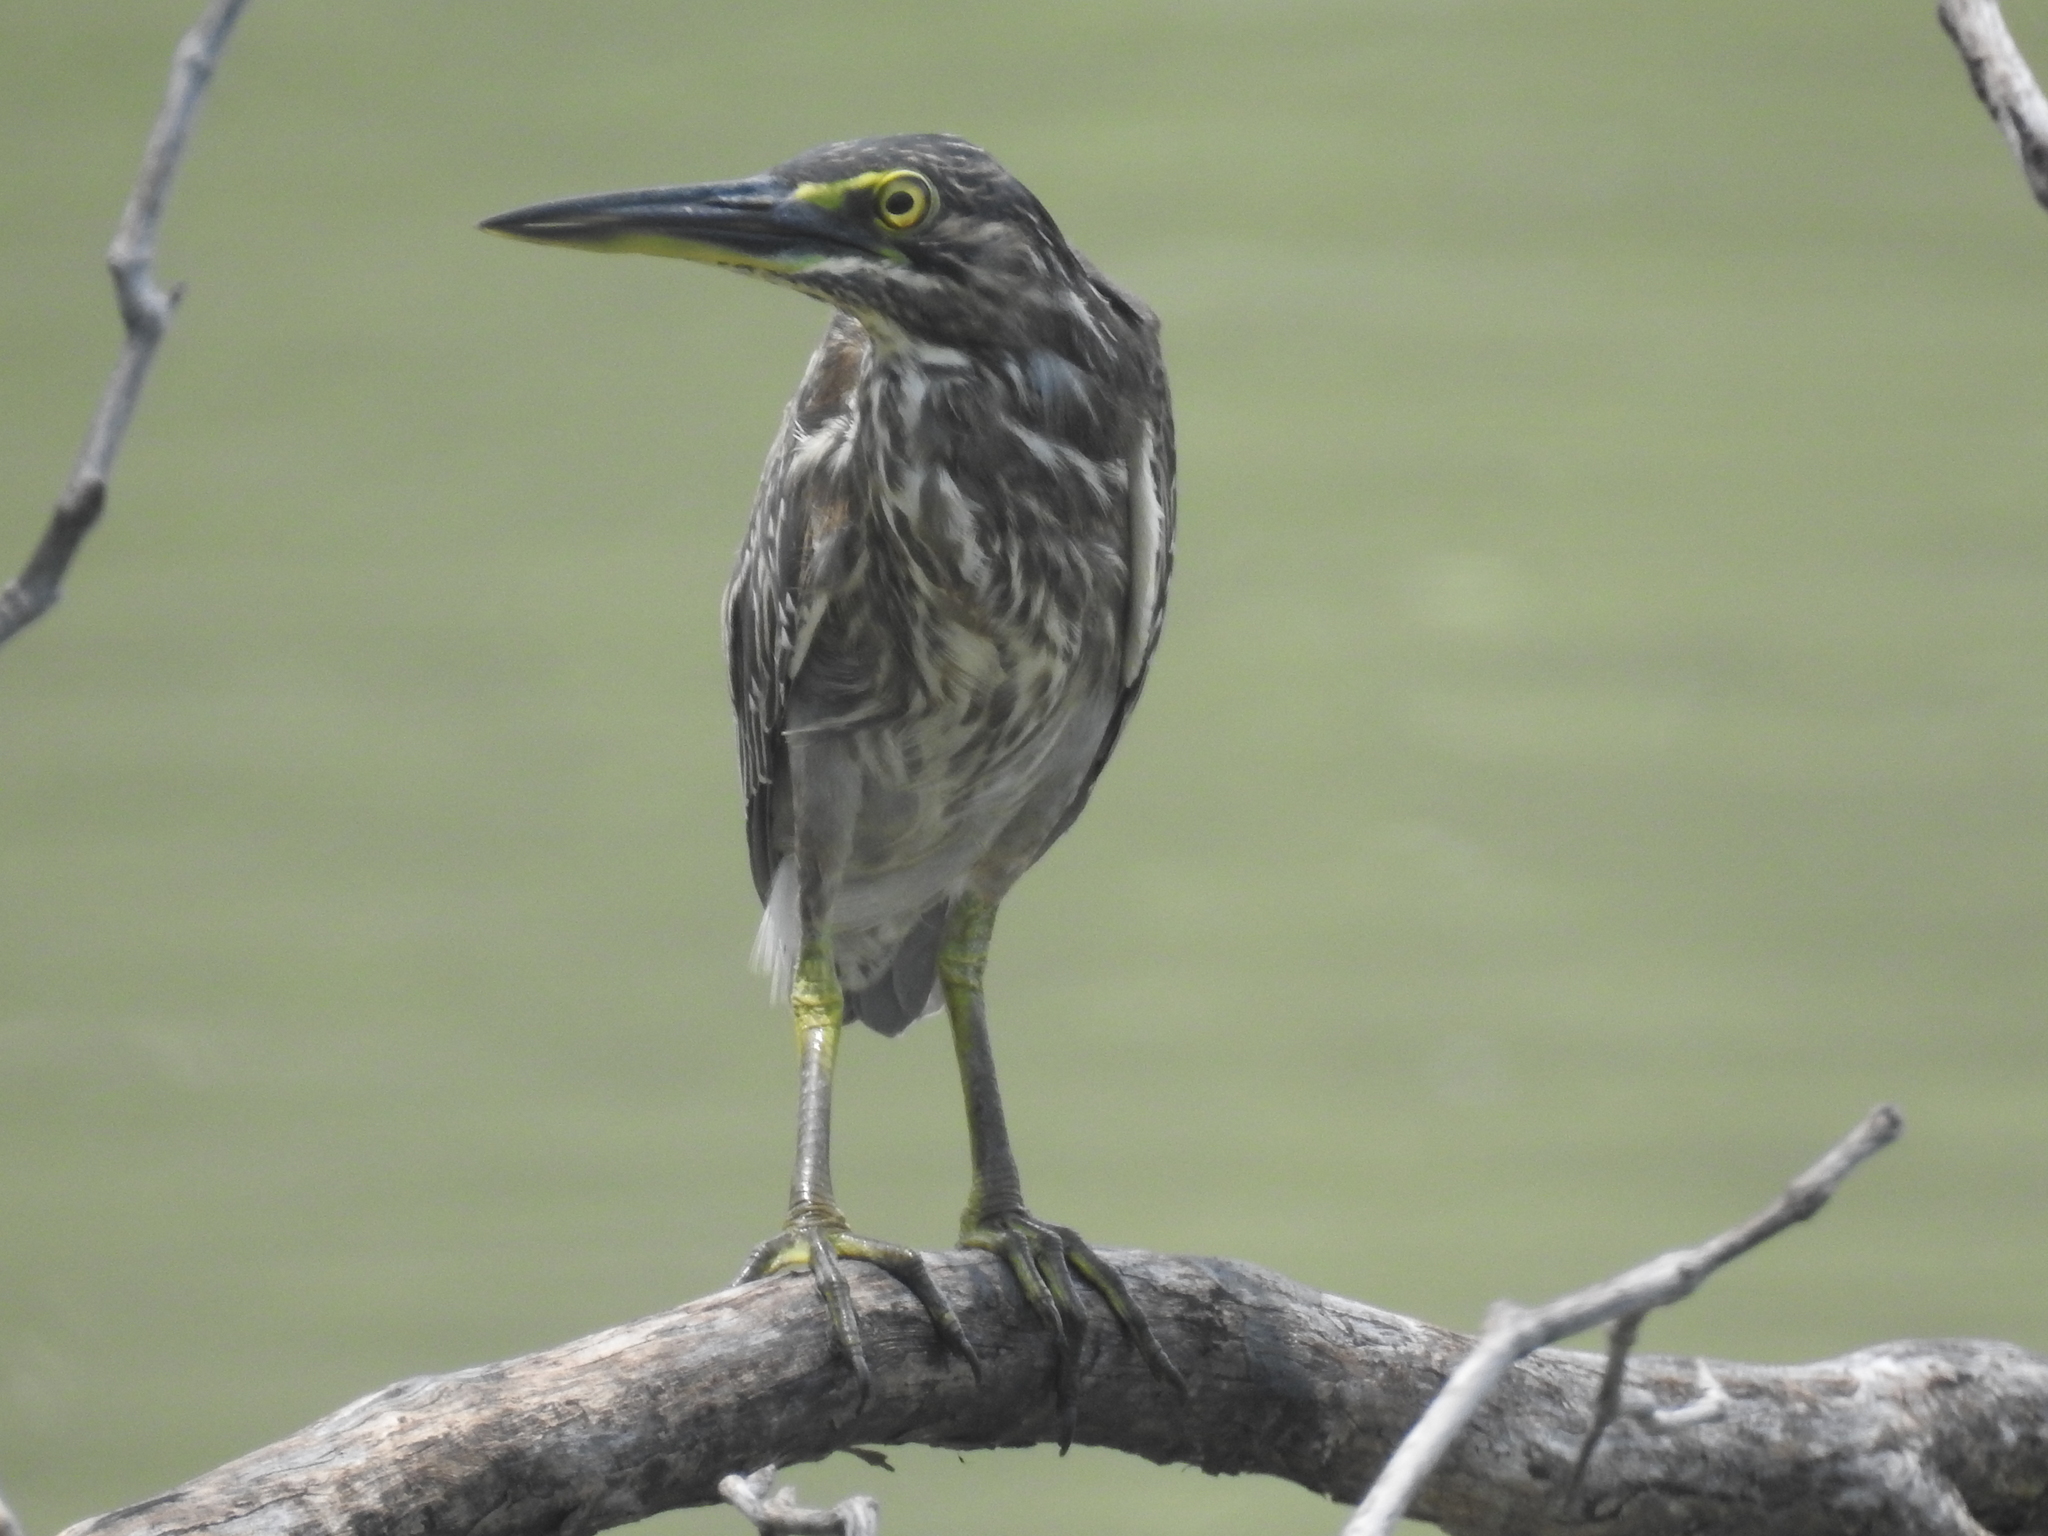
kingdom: Animalia
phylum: Chordata
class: Aves
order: Pelecaniformes
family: Ardeidae
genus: Butorides
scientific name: Butorides striata
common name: Striated heron
